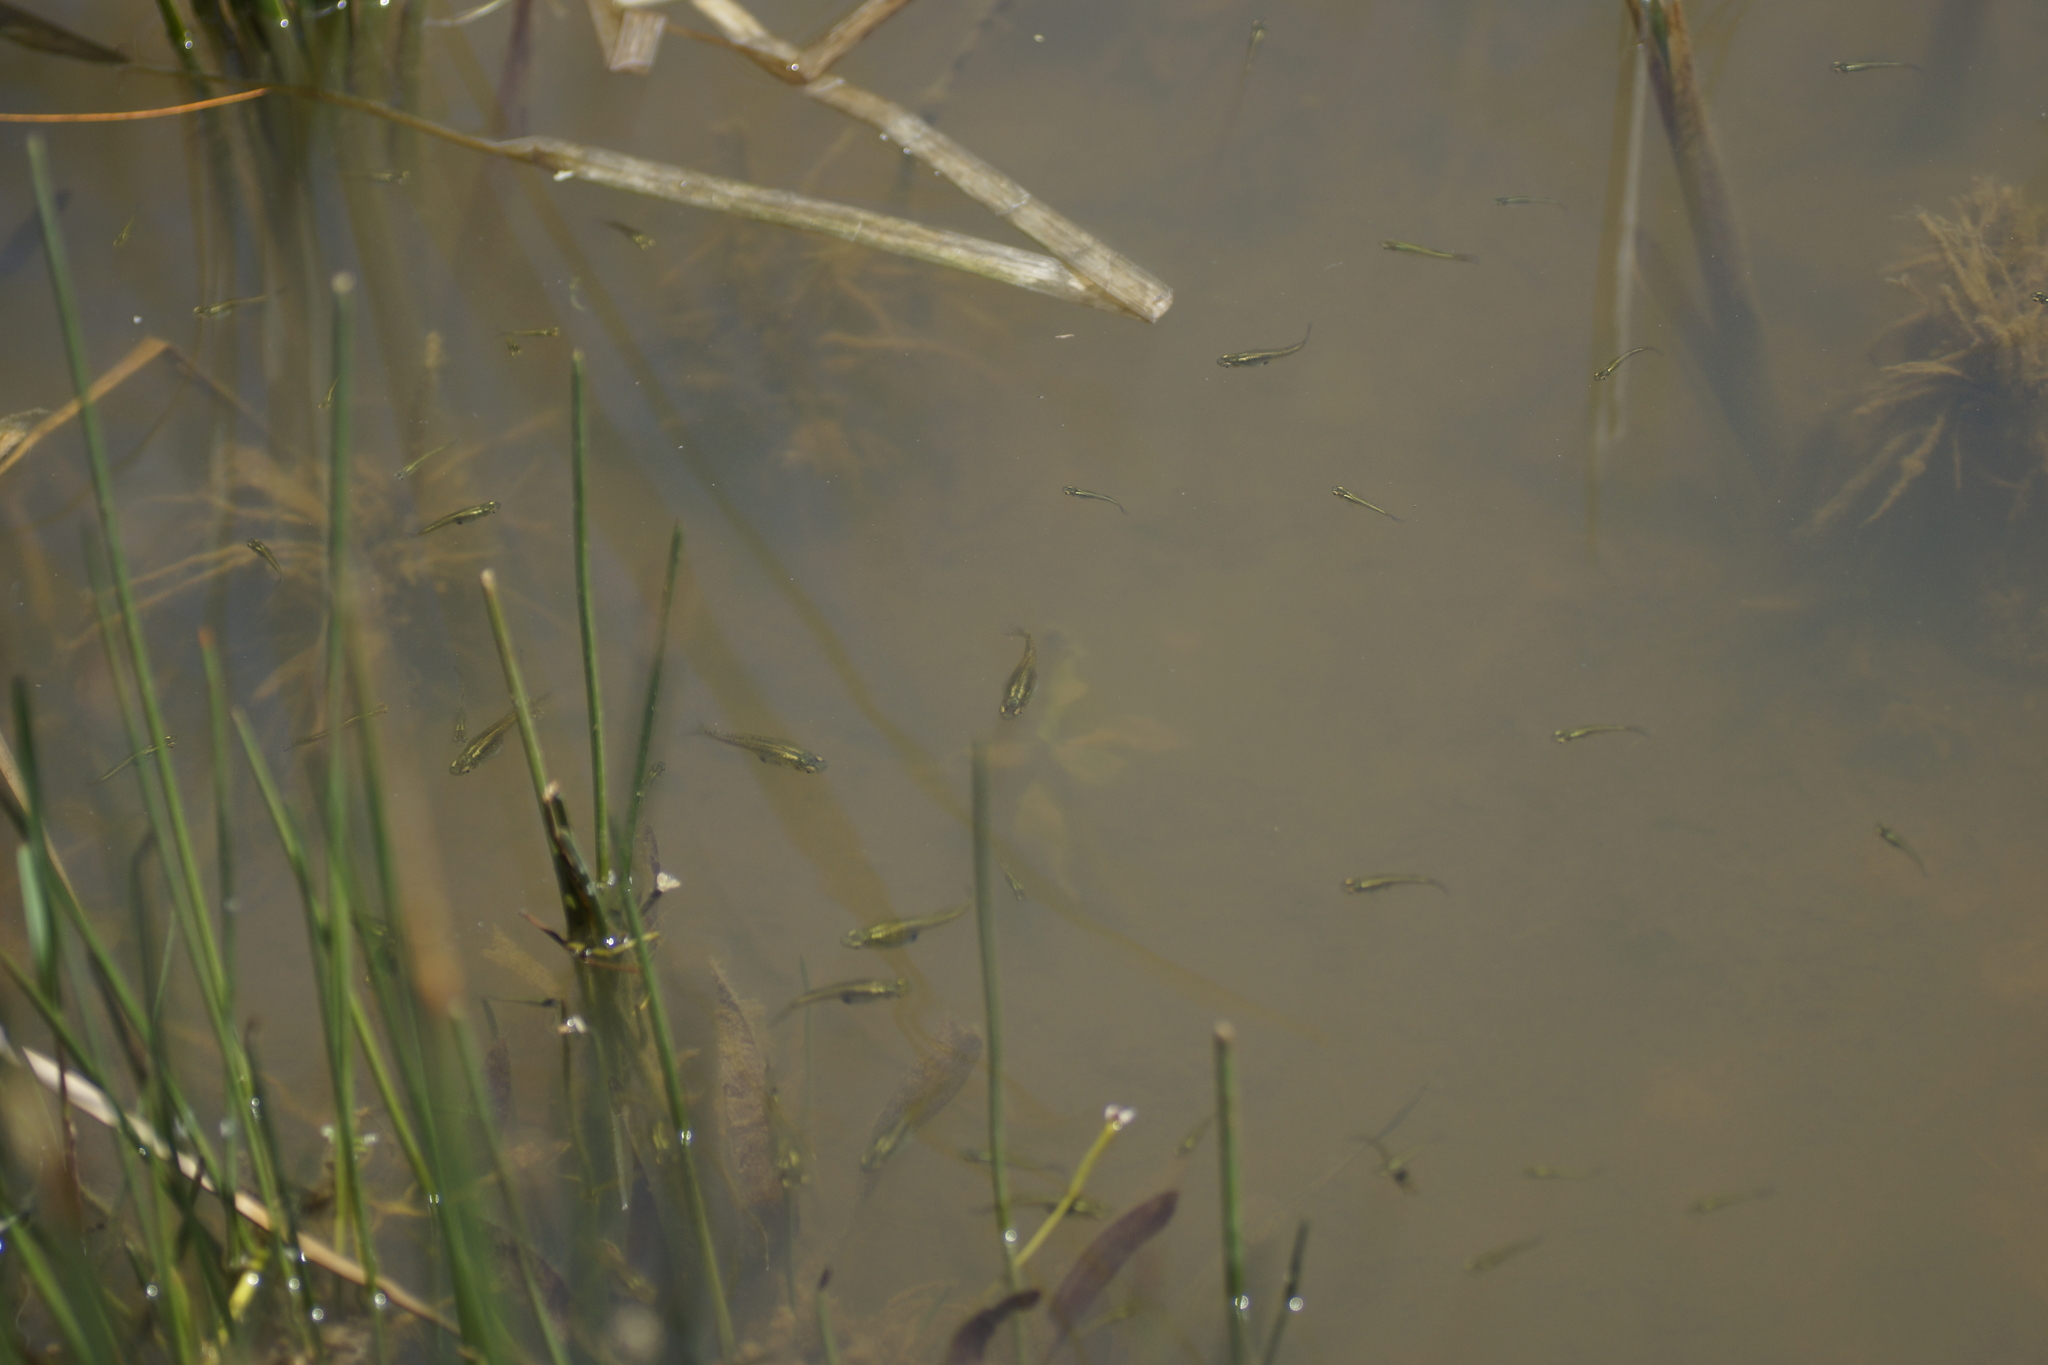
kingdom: Animalia
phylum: Chordata
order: Cyprinodontiformes
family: Poeciliidae
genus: Gambusia
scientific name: Gambusia holbrooki
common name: Eastern mosquitofish
